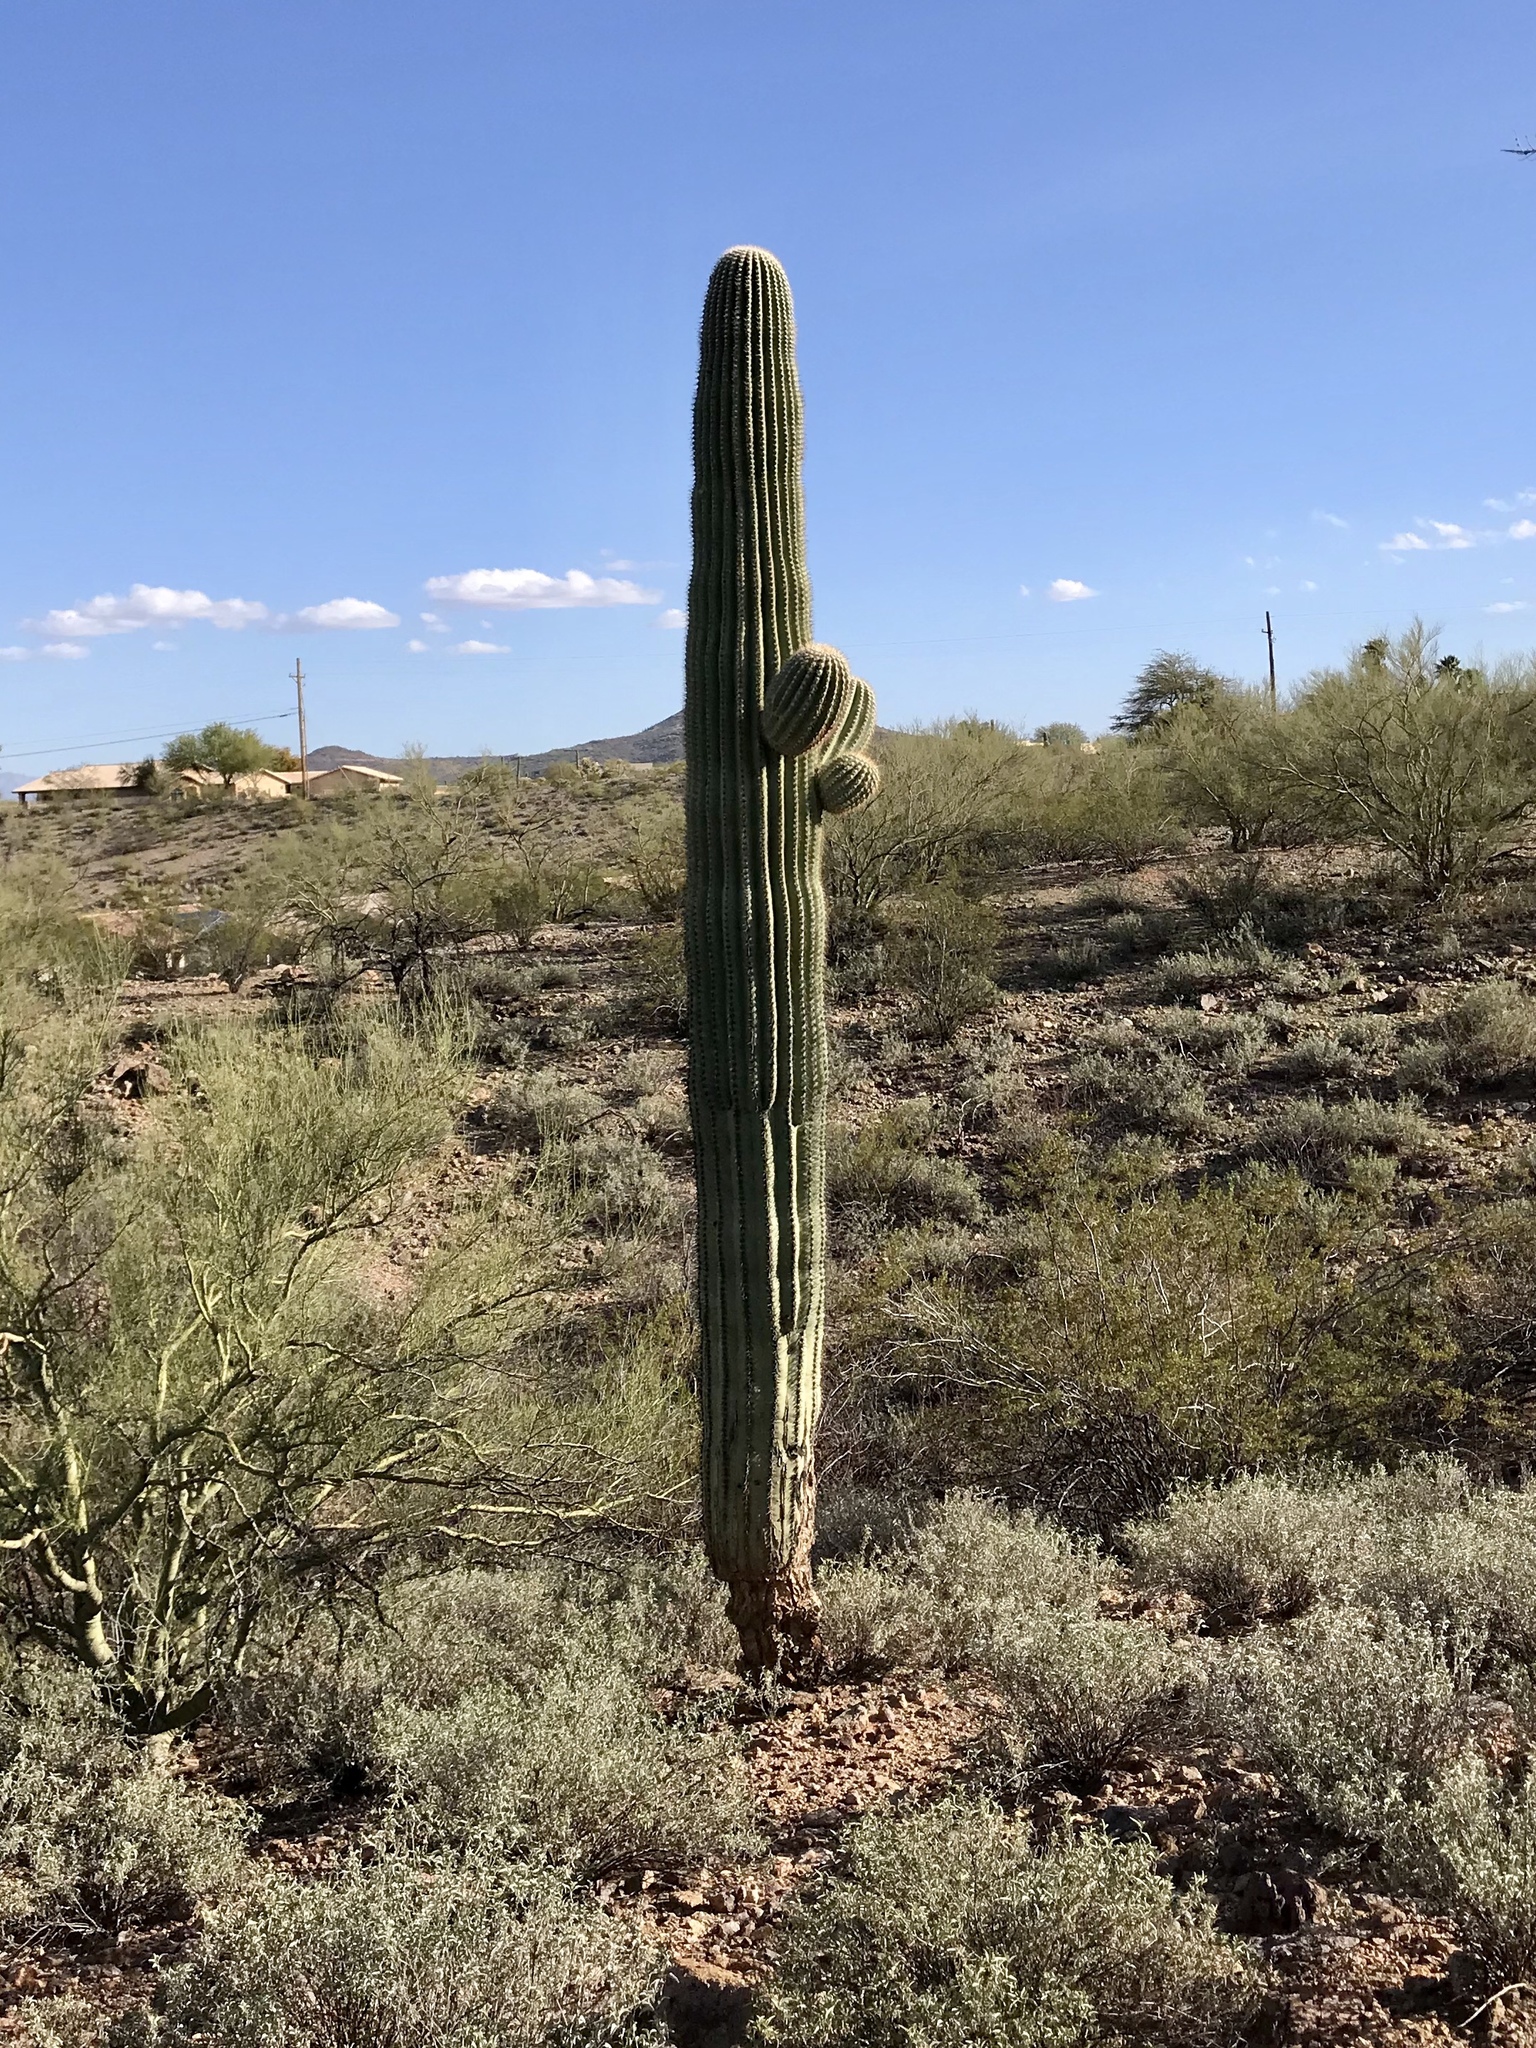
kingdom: Plantae
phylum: Tracheophyta
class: Magnoliopsida
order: Caryophyllales
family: Cactaceae
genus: Carnegiea
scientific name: Carnegiea gigantea
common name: Saguaro
